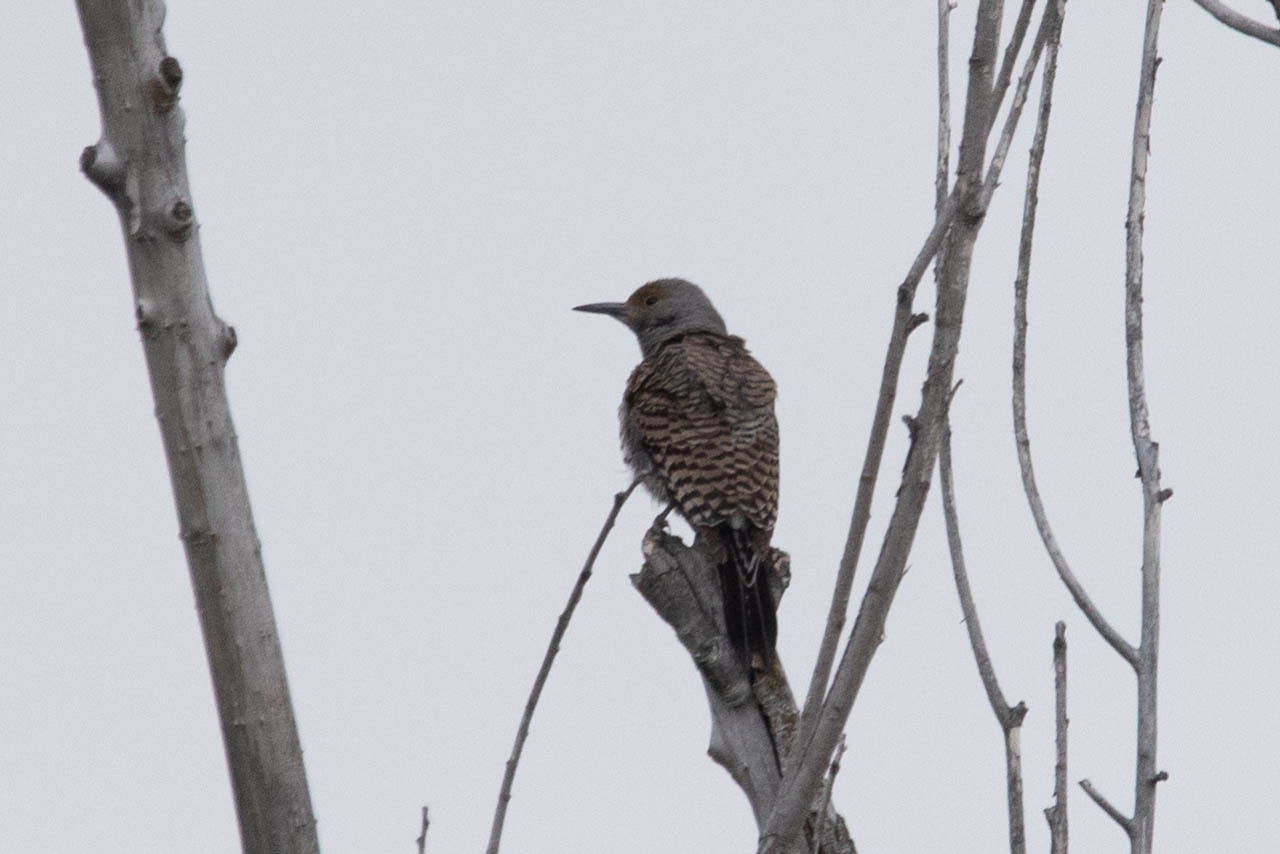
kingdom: Animalia
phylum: Chordata
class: Aves
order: Piciformes
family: Picidae
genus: Colaptes
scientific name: Colaptes auratus
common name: Northern flicker
